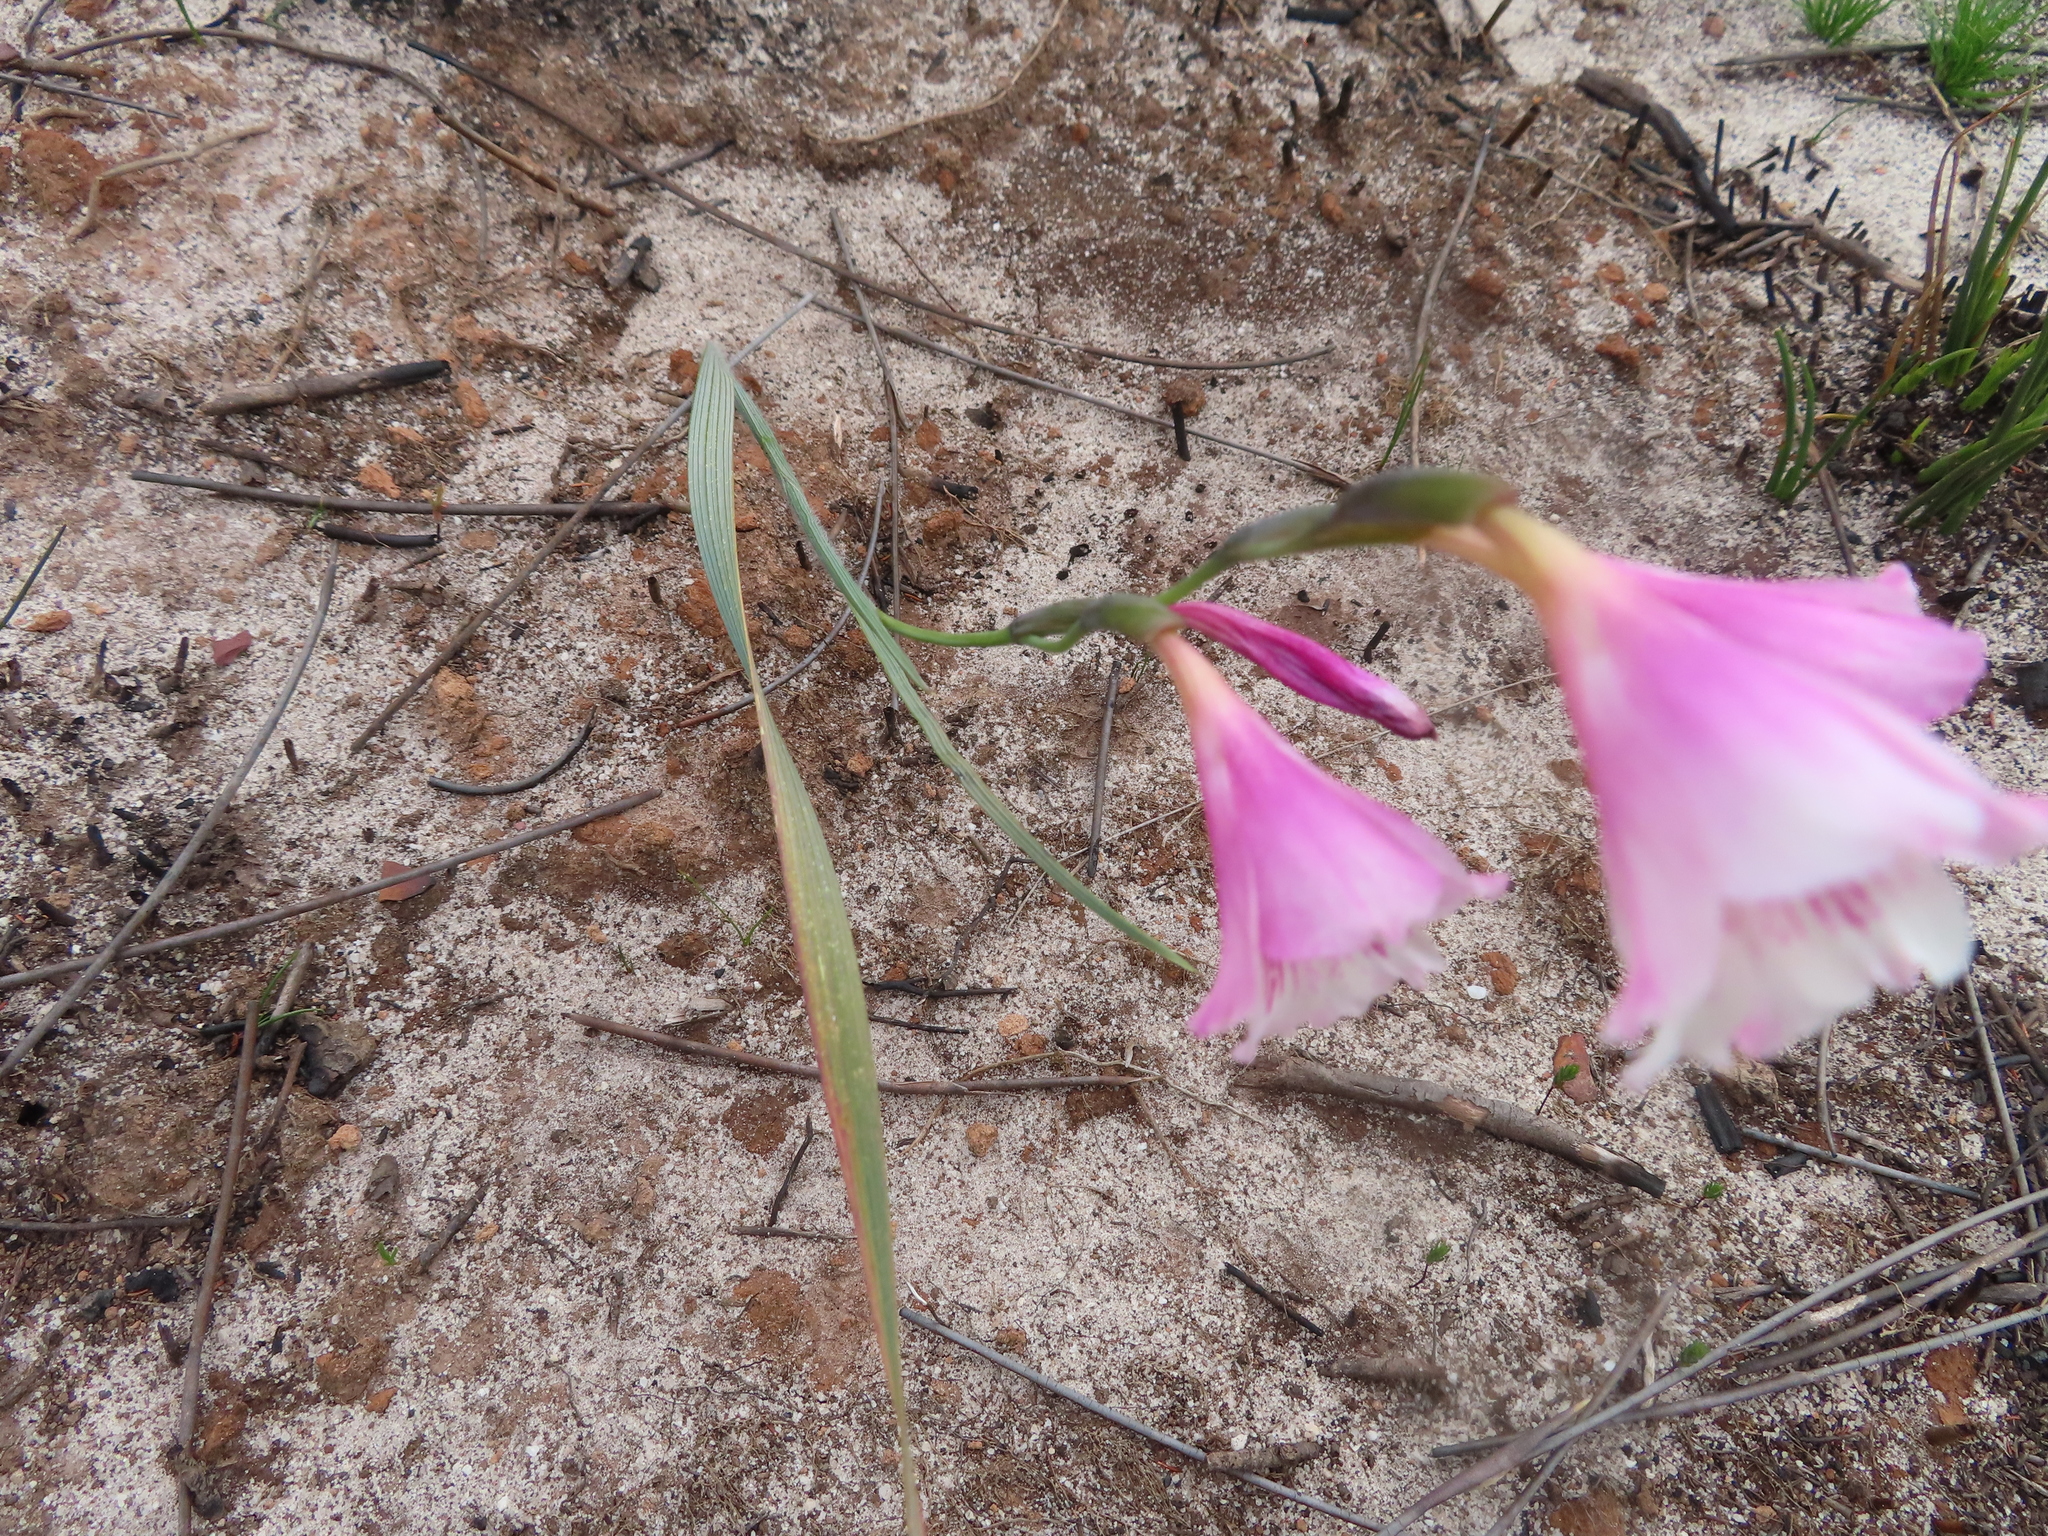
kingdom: Plantae
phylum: Tracheophyta
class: Liliopsida
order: Asparagales
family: Iridaceae
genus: Gladiolus
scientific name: Gladiolus hirsutus
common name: Small pink afrikaner
